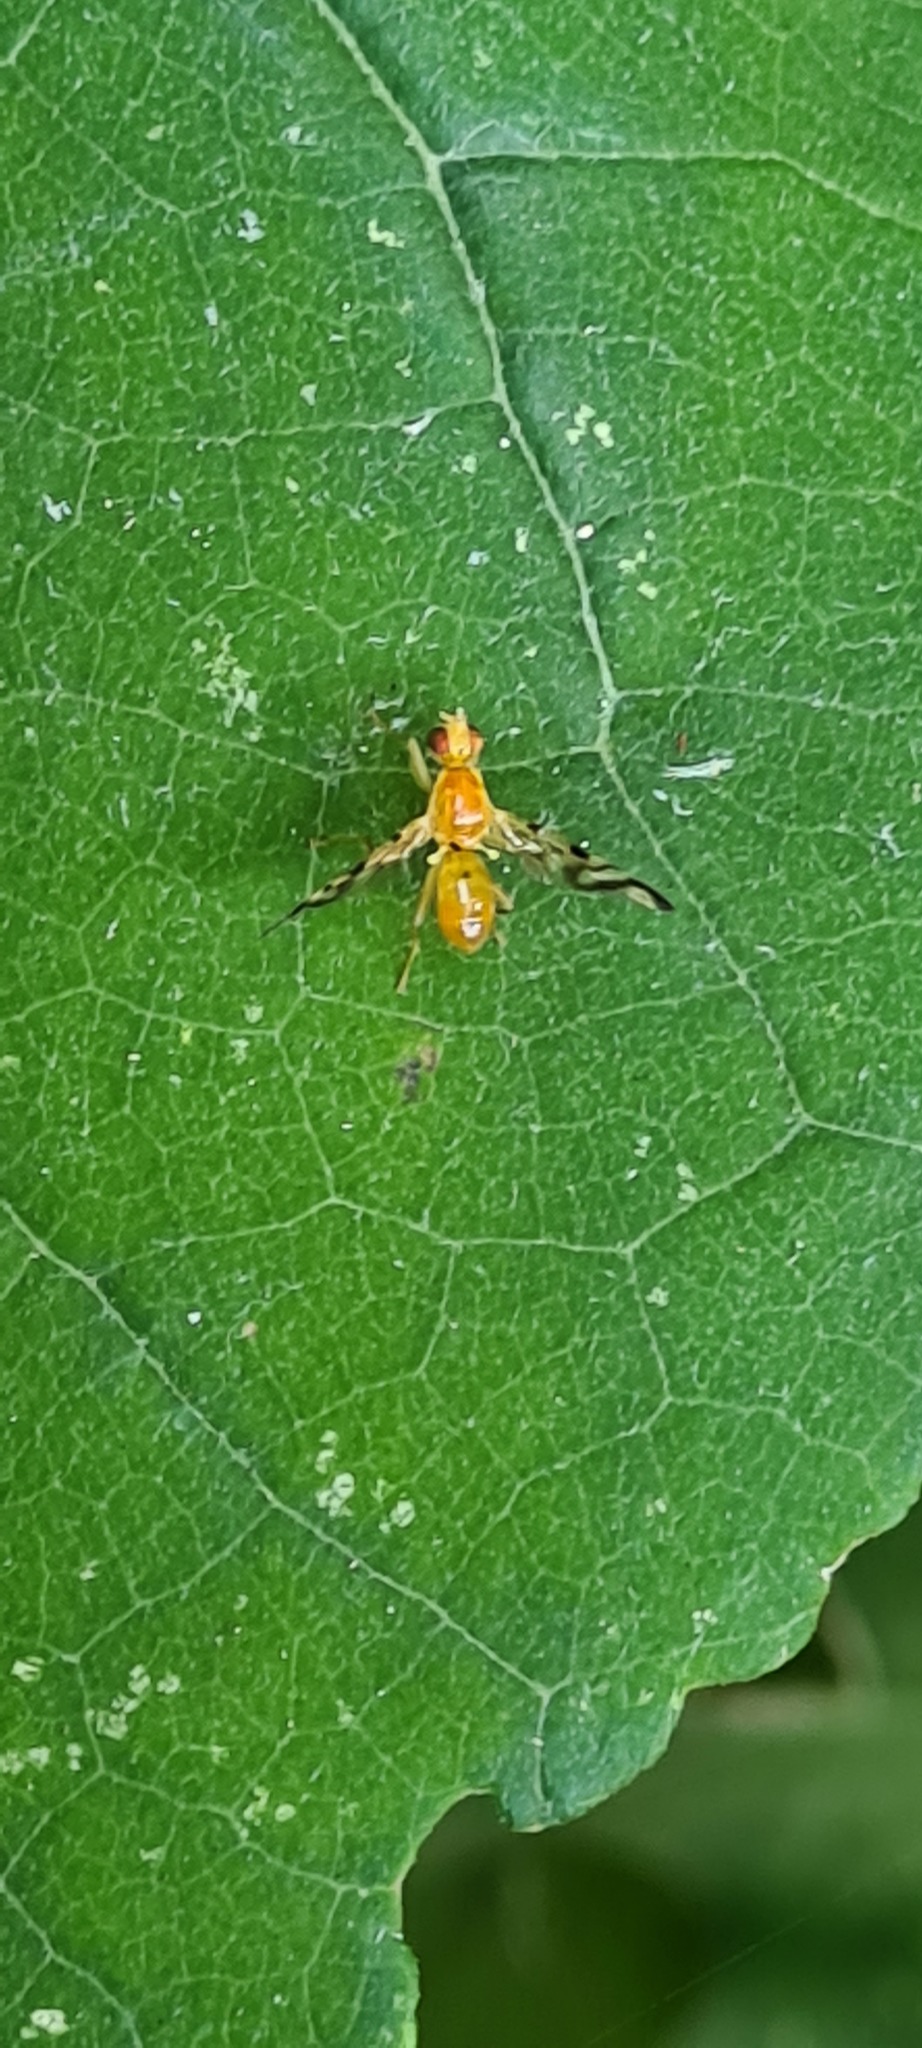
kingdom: Animalia
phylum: Arthropoda
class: Insecta
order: Diptera
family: Tephritidae
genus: Acidia
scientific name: Acidia cognata
